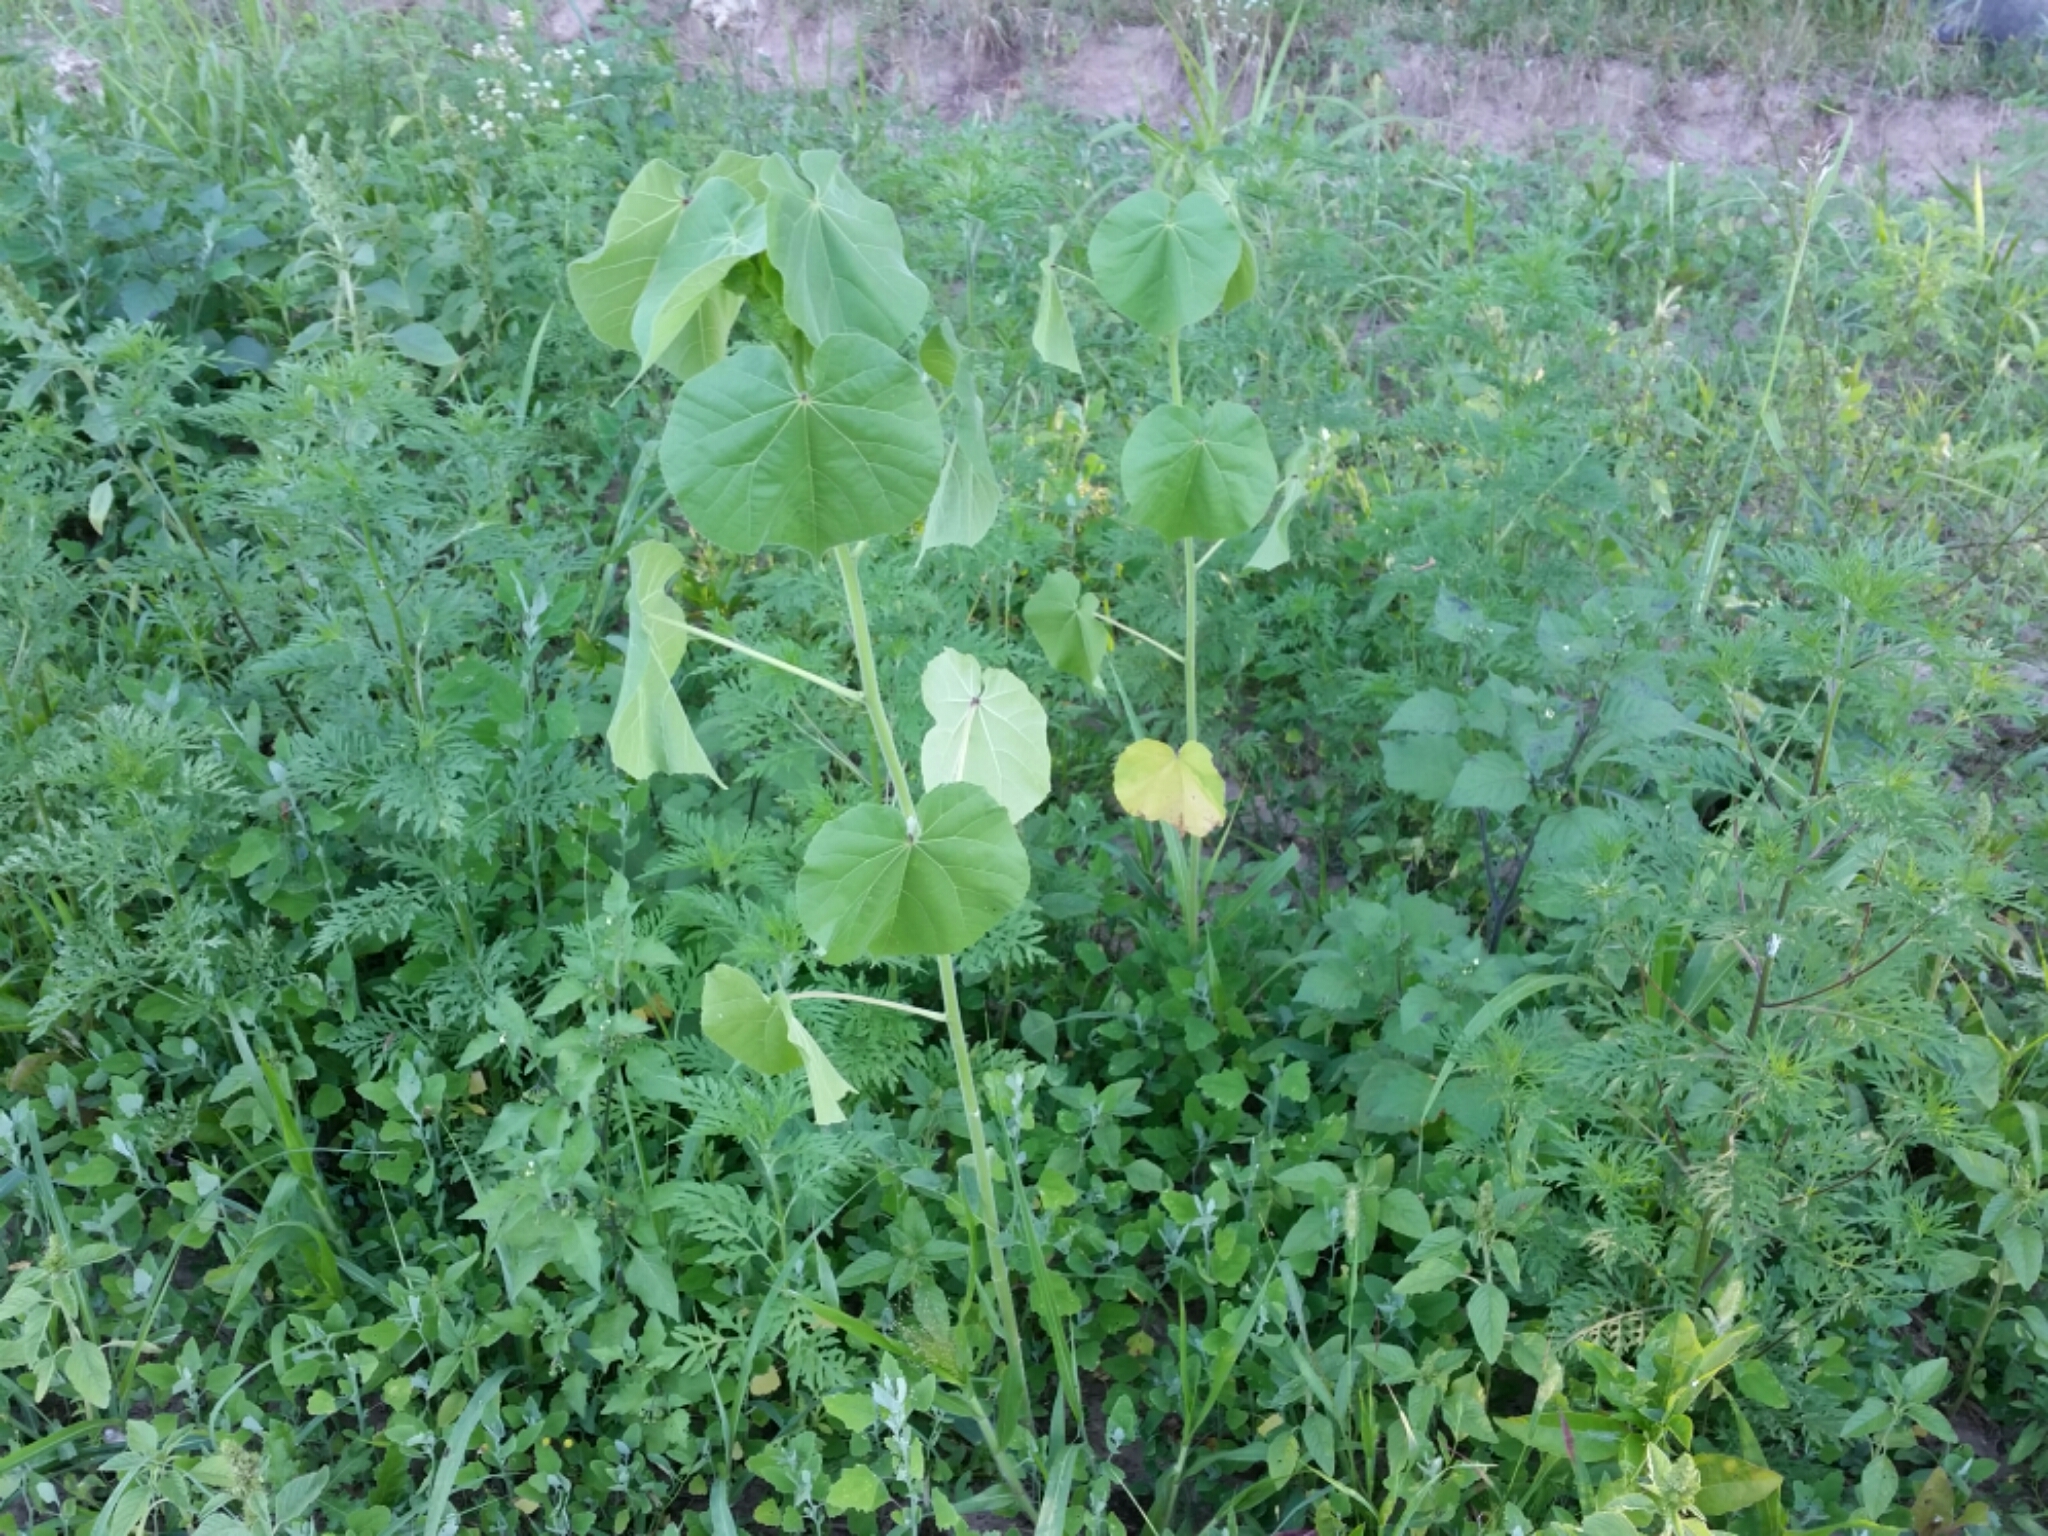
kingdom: Plantae
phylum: Tracheophyta
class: Magnoliopsida
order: Malvales
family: Malvaceae
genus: Abutilon
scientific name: Abutilon theophrasti
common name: Velvetleaf
